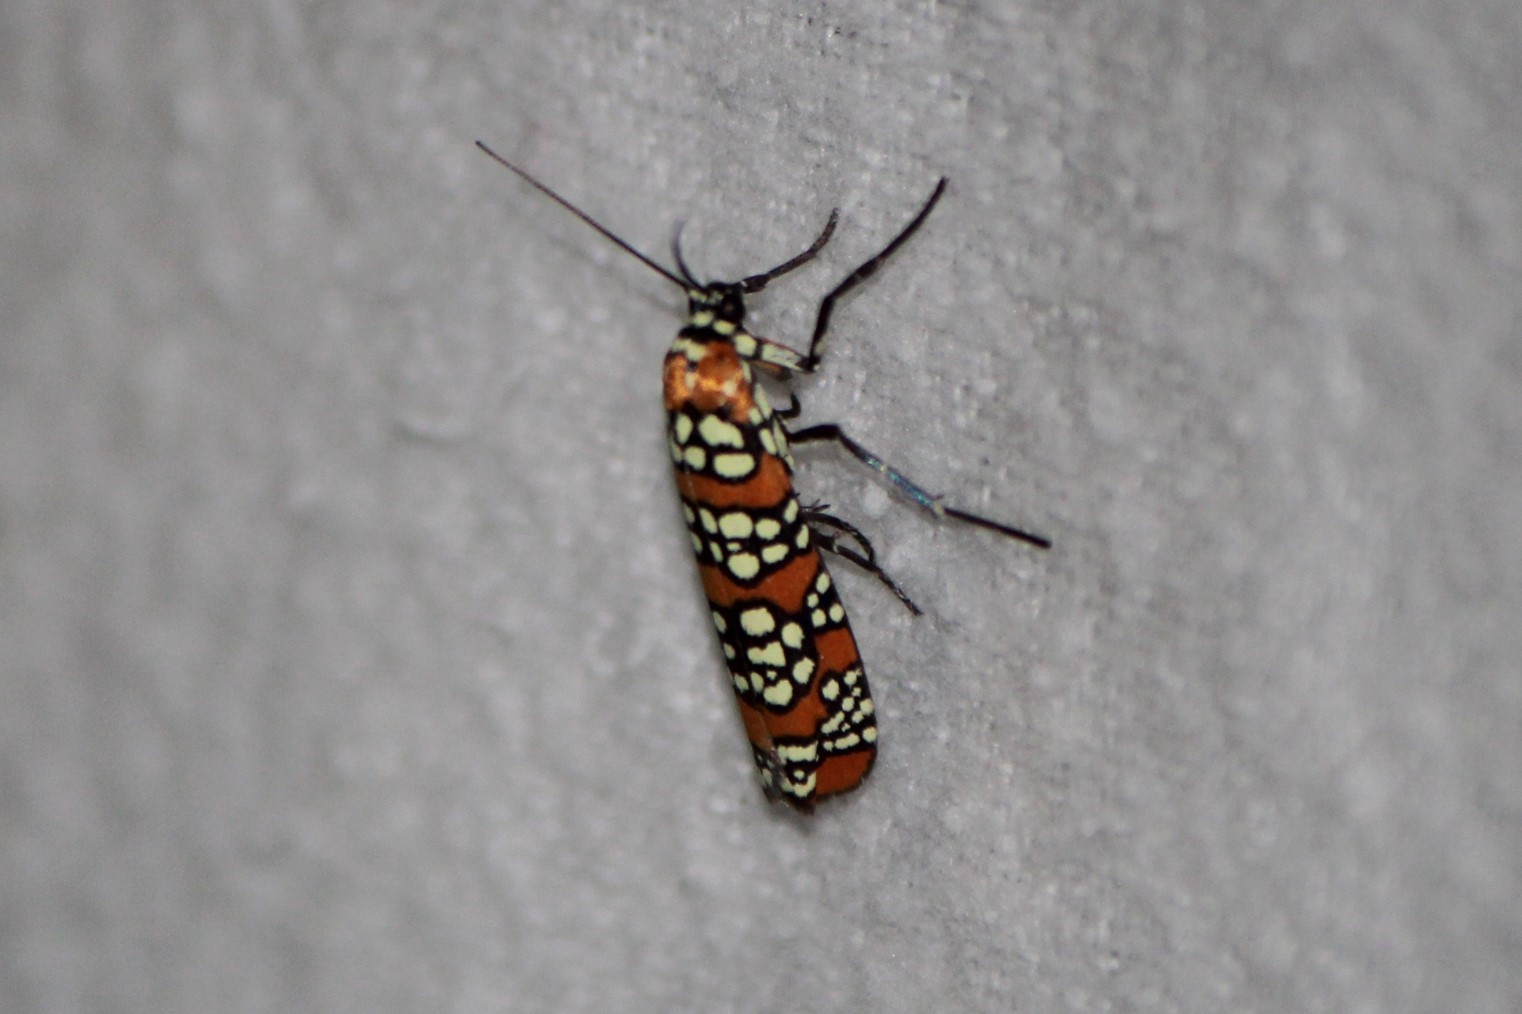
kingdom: Animalia
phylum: Arthropoda
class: Insecta
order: Lepidoptera
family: Attevidae
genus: Atteva
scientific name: Atteva punctella
